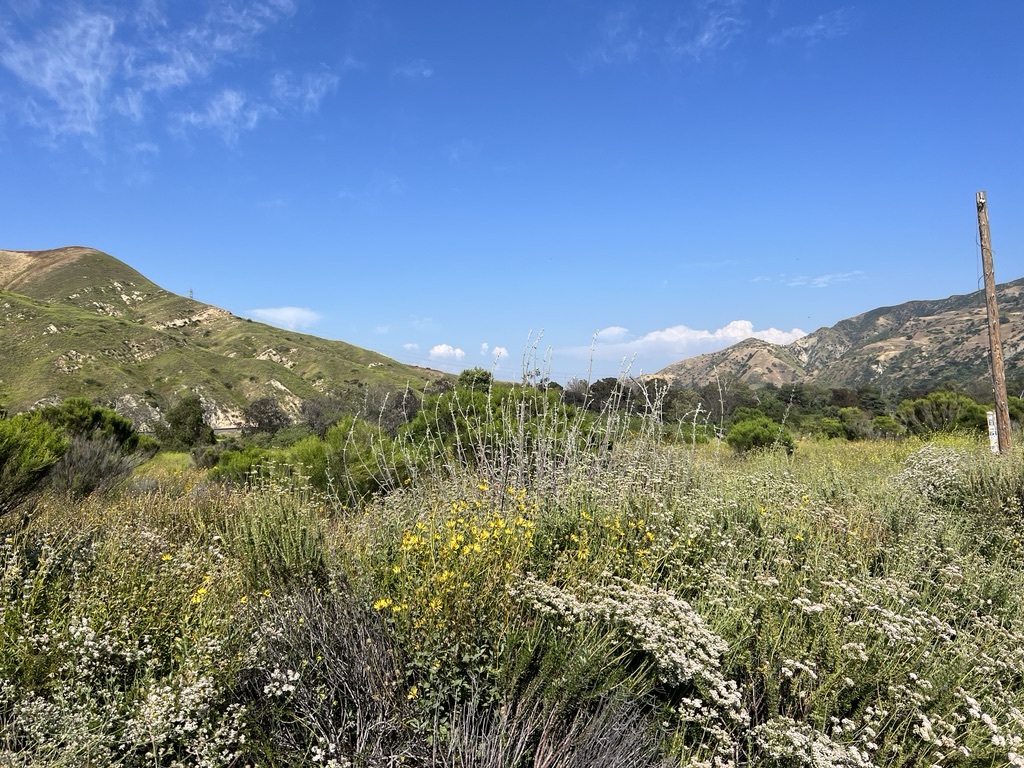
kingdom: Plantae
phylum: Tracheophyta
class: Magnoliopsida
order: Lamiales
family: Lamiaceae
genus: Salvia
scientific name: Salvia apiana
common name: White sage
